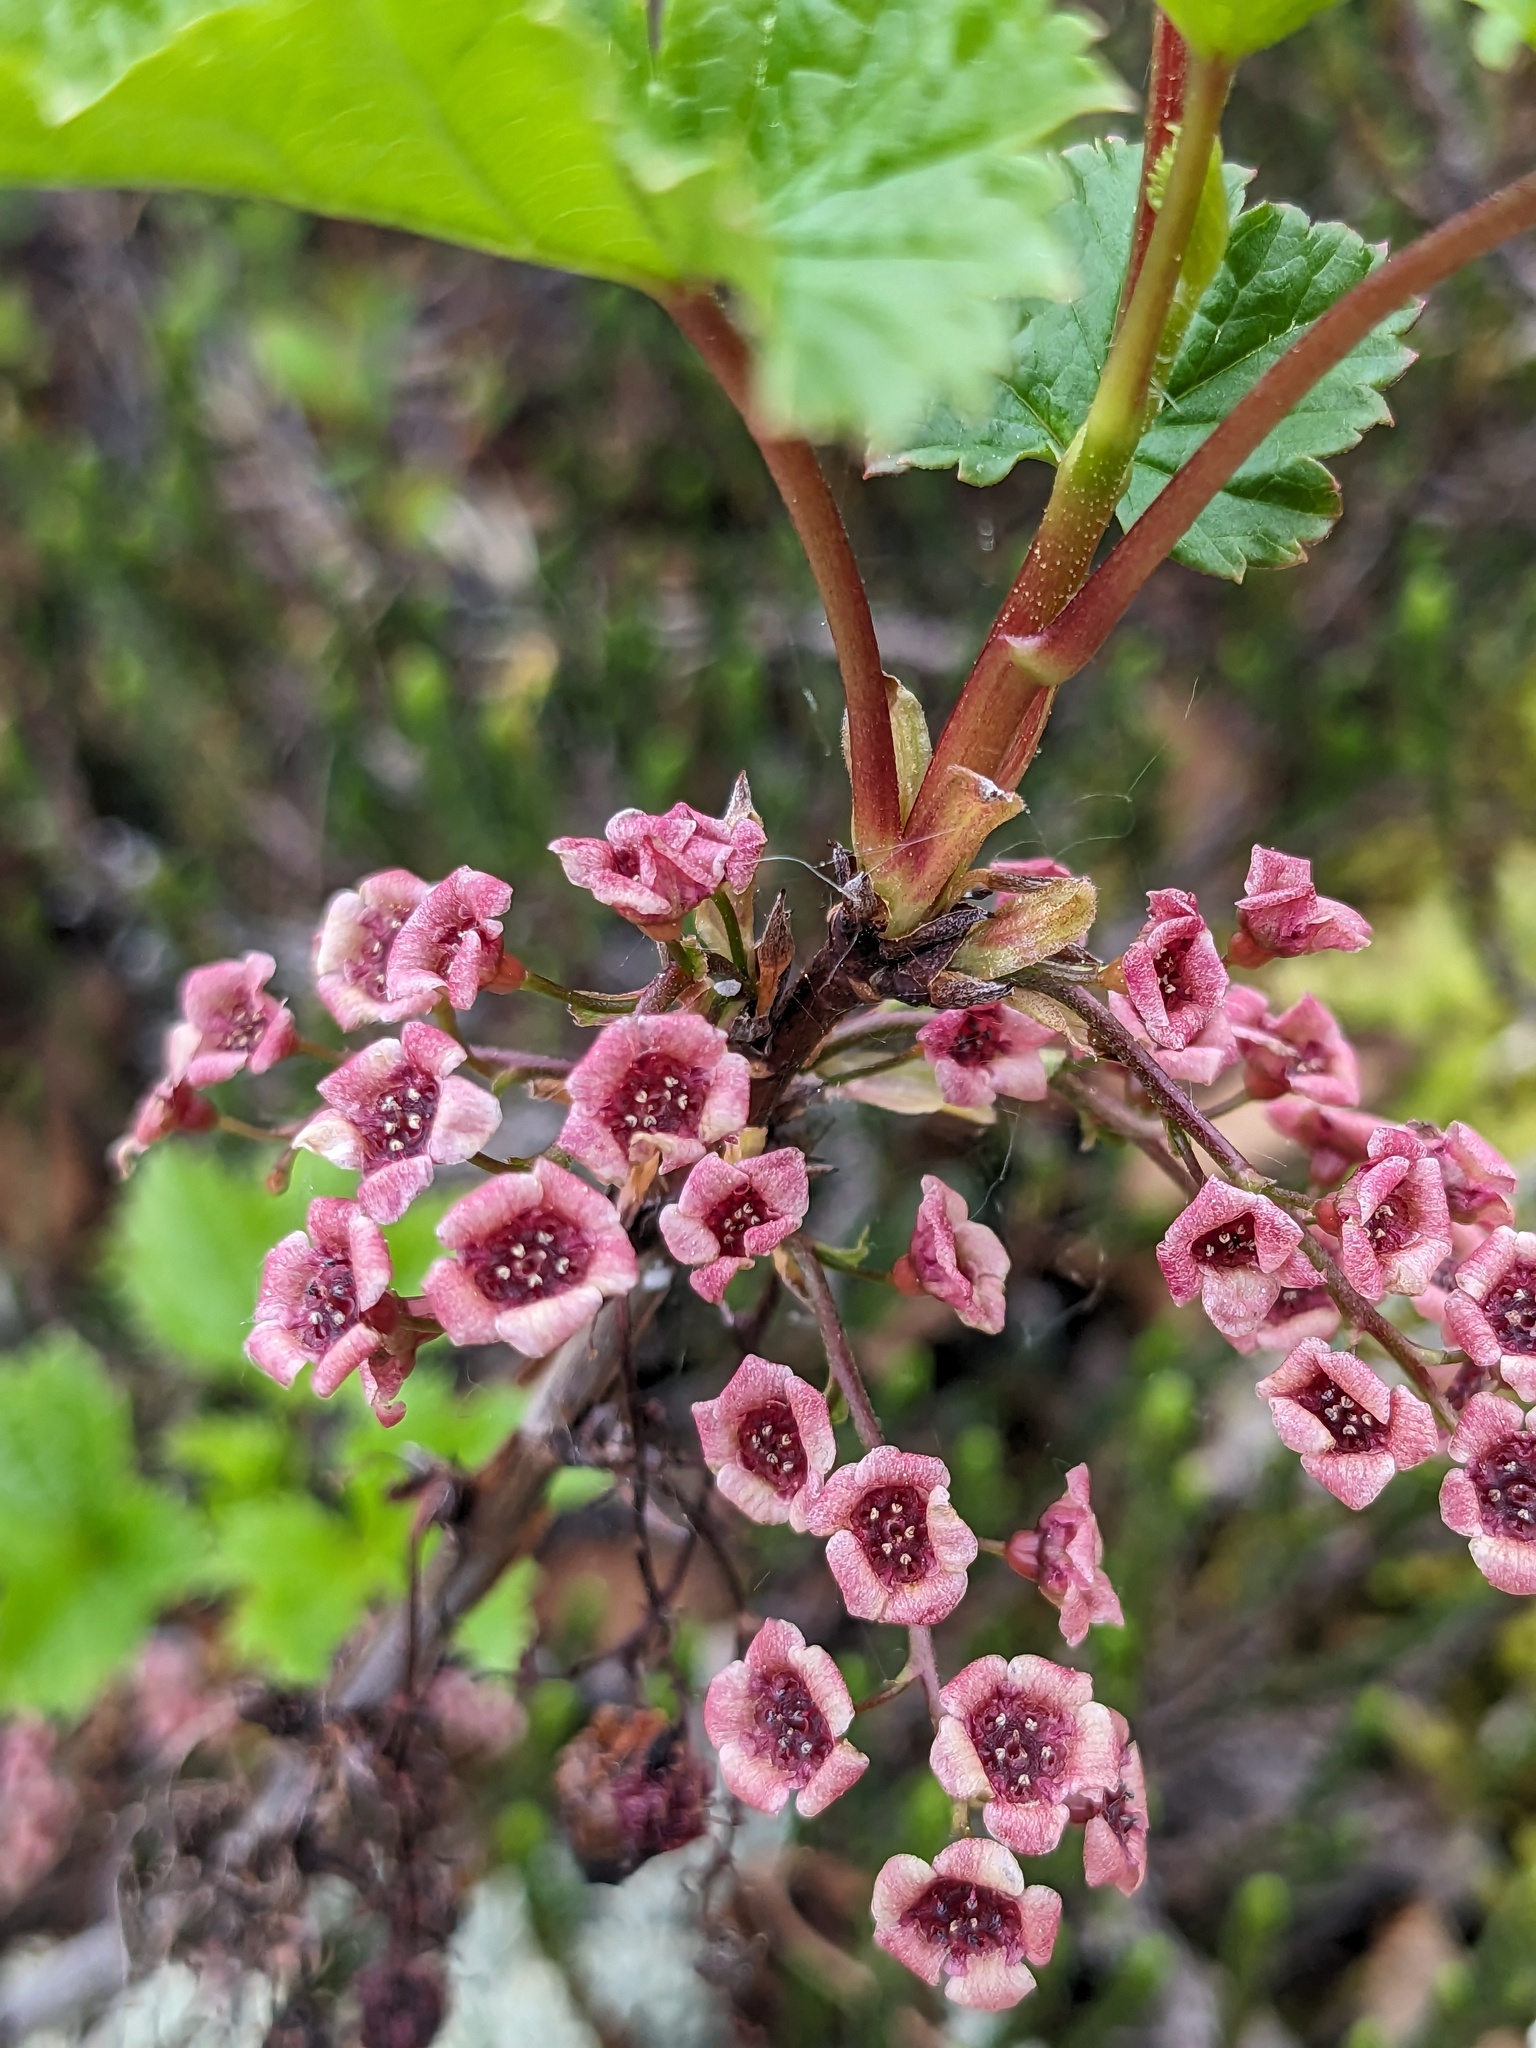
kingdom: Plantae
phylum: Tracheophyta
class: Magnoliopsida
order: Saxifragales
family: Grossulariaceae
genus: Ribes
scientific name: Ribes triste
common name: Swamp red currant
